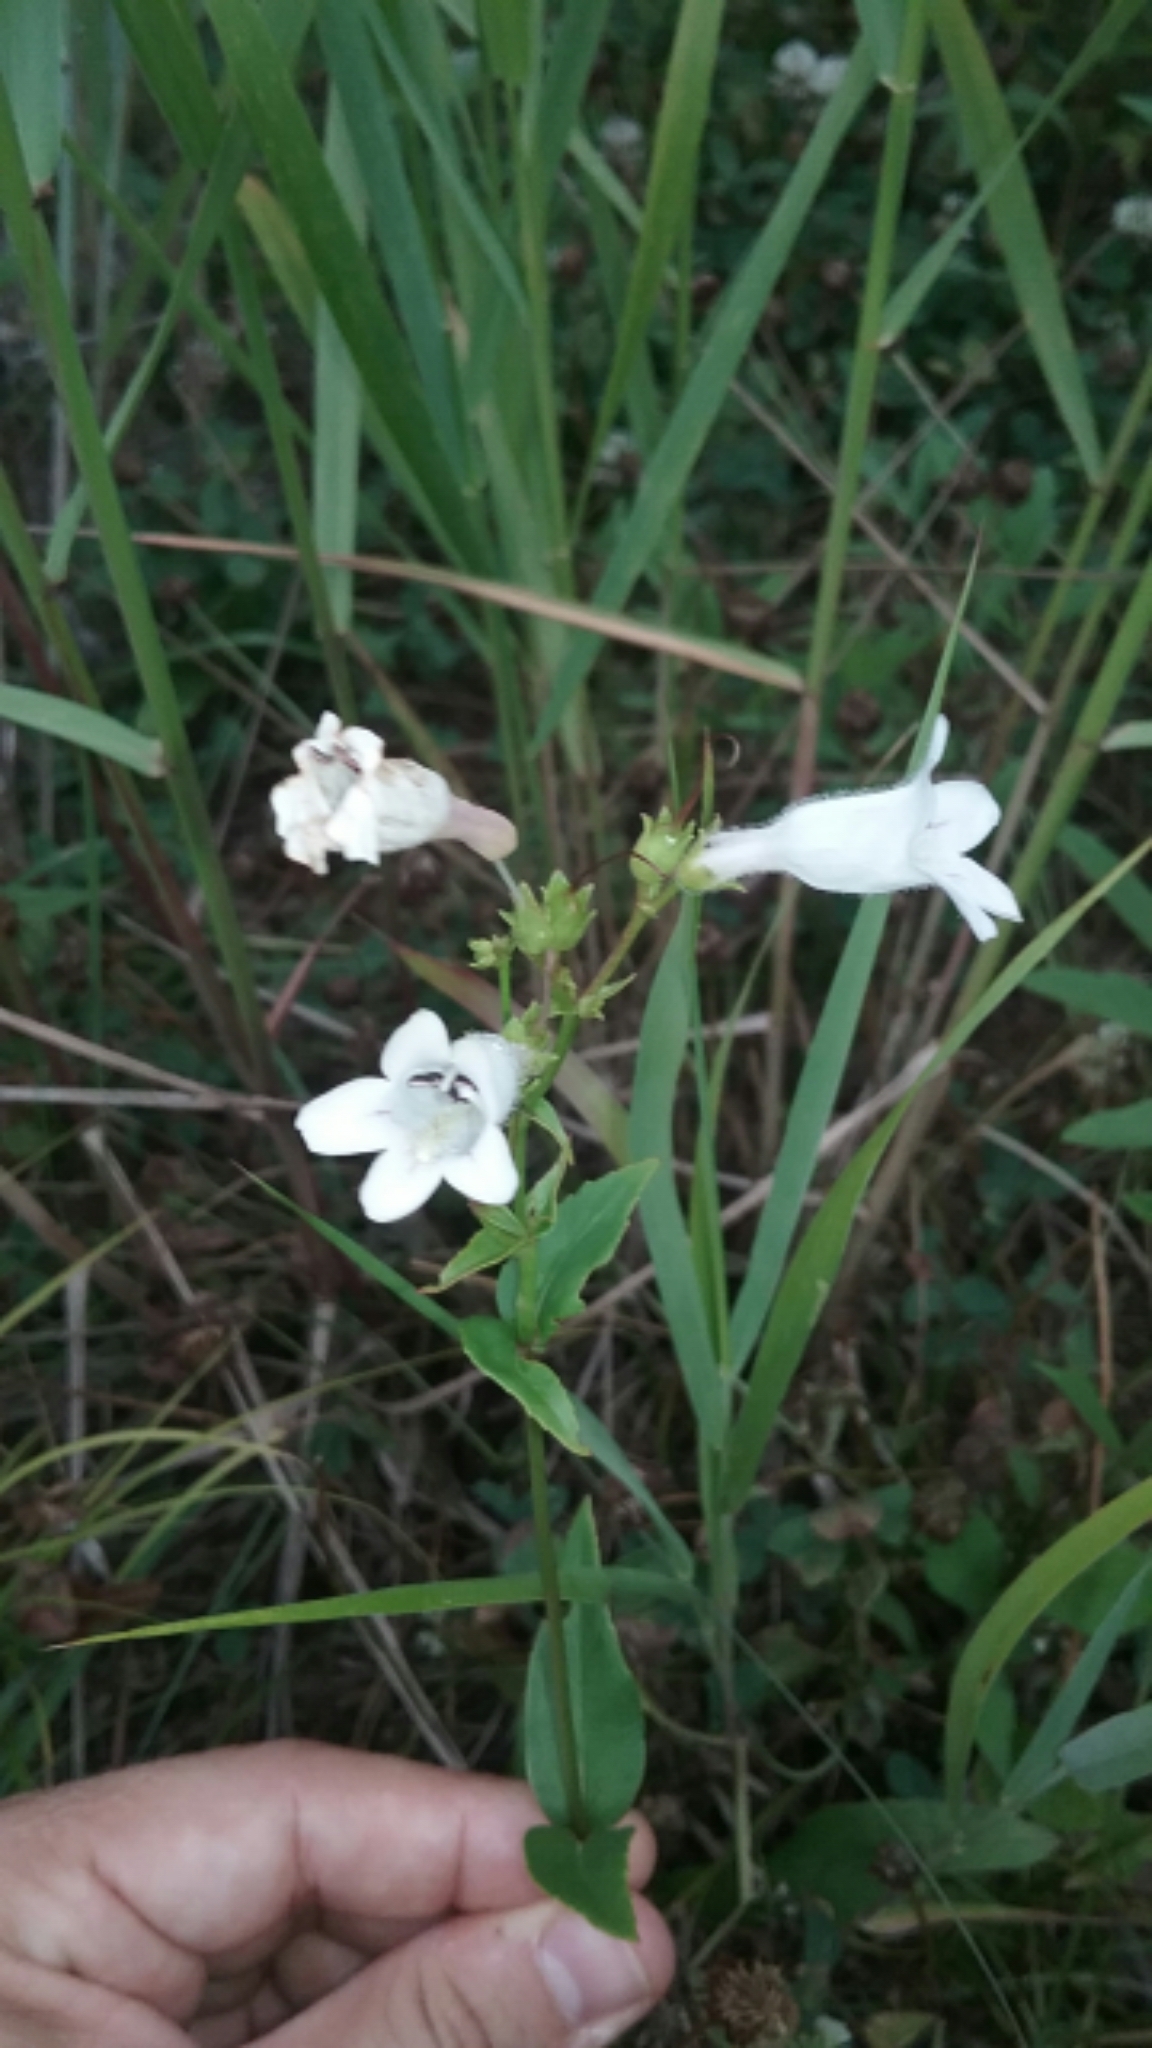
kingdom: Plantae
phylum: Tracheophyta
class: Magnoliopsida
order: Lamiales
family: Plantaginaceae
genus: Penstemon
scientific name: Penstemon digitalis
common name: Foxglove beardtongue
